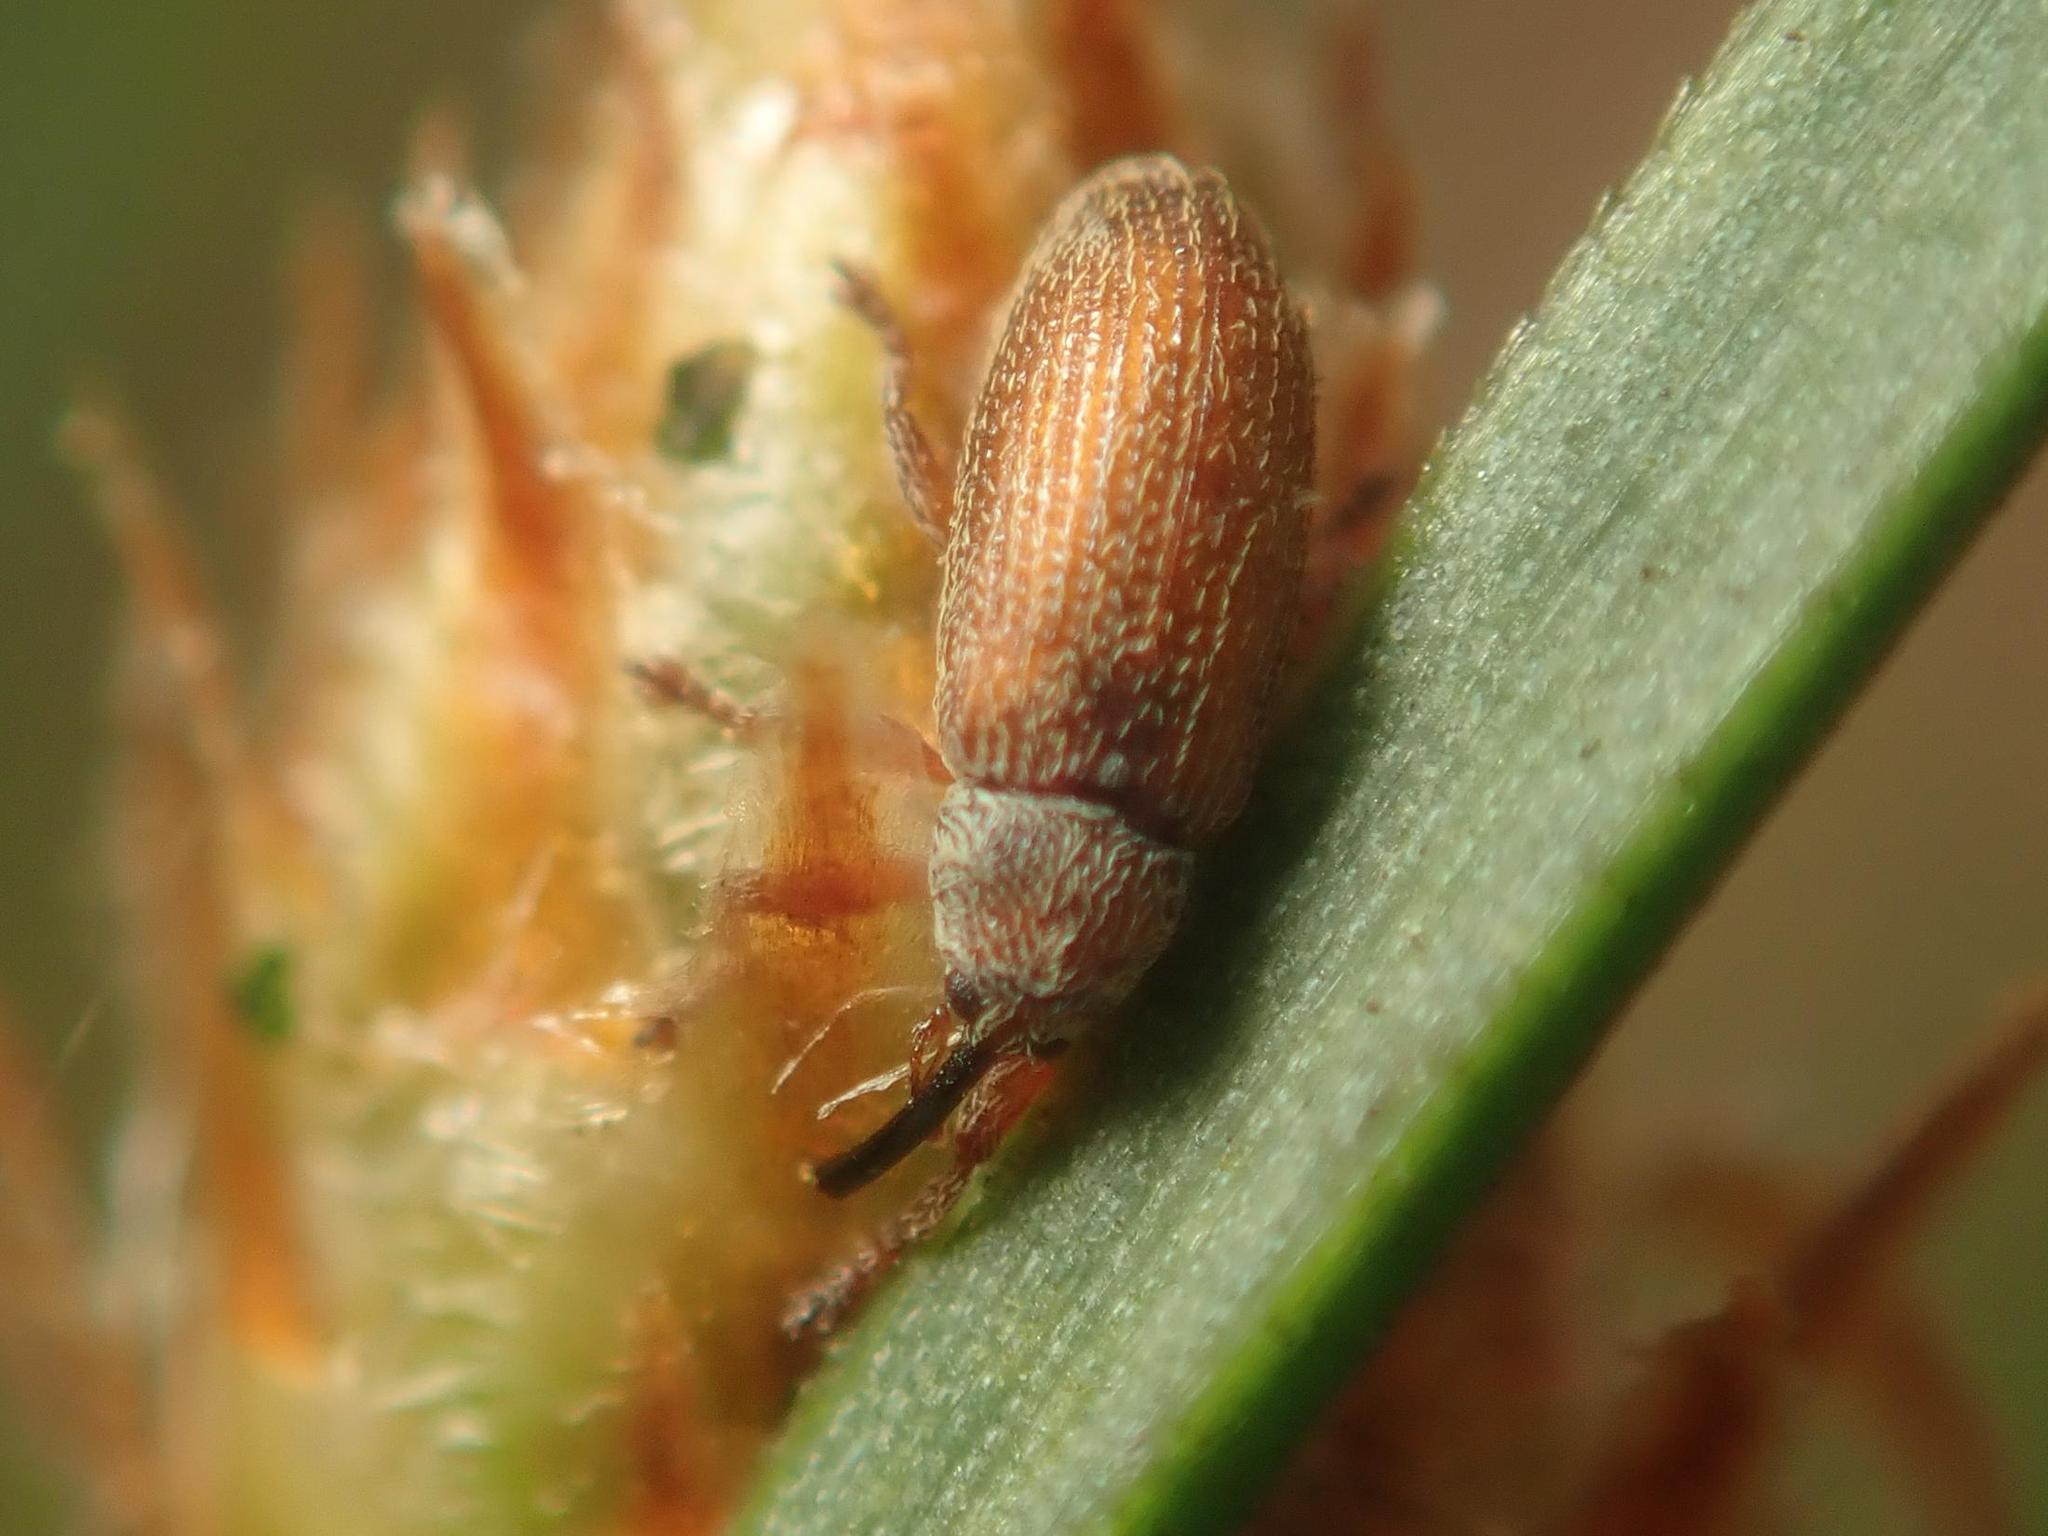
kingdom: Animalia
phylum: Arthropoda
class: Insecta
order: Coleoptera
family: Curculionidae
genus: Brachonyx
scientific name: Brachonyx pineti
